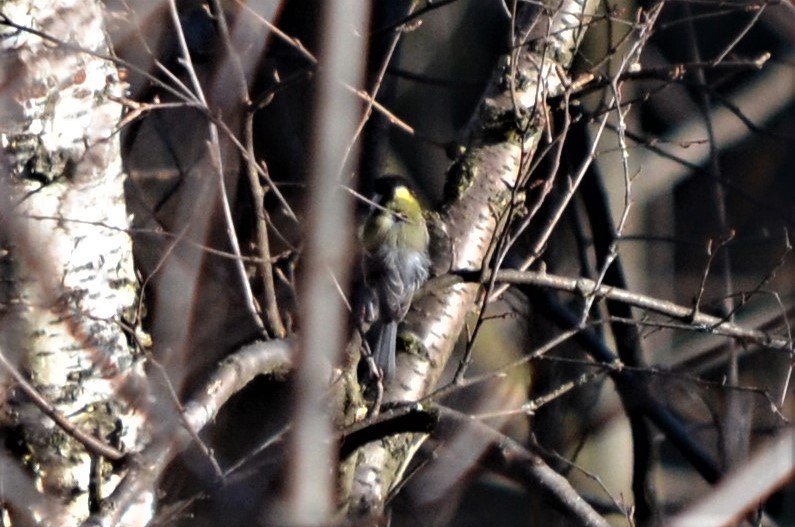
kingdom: Animalia
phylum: Chordata
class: Aves
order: Passeriformes
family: Paridae
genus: Parus
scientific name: Parus major
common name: Great tit
